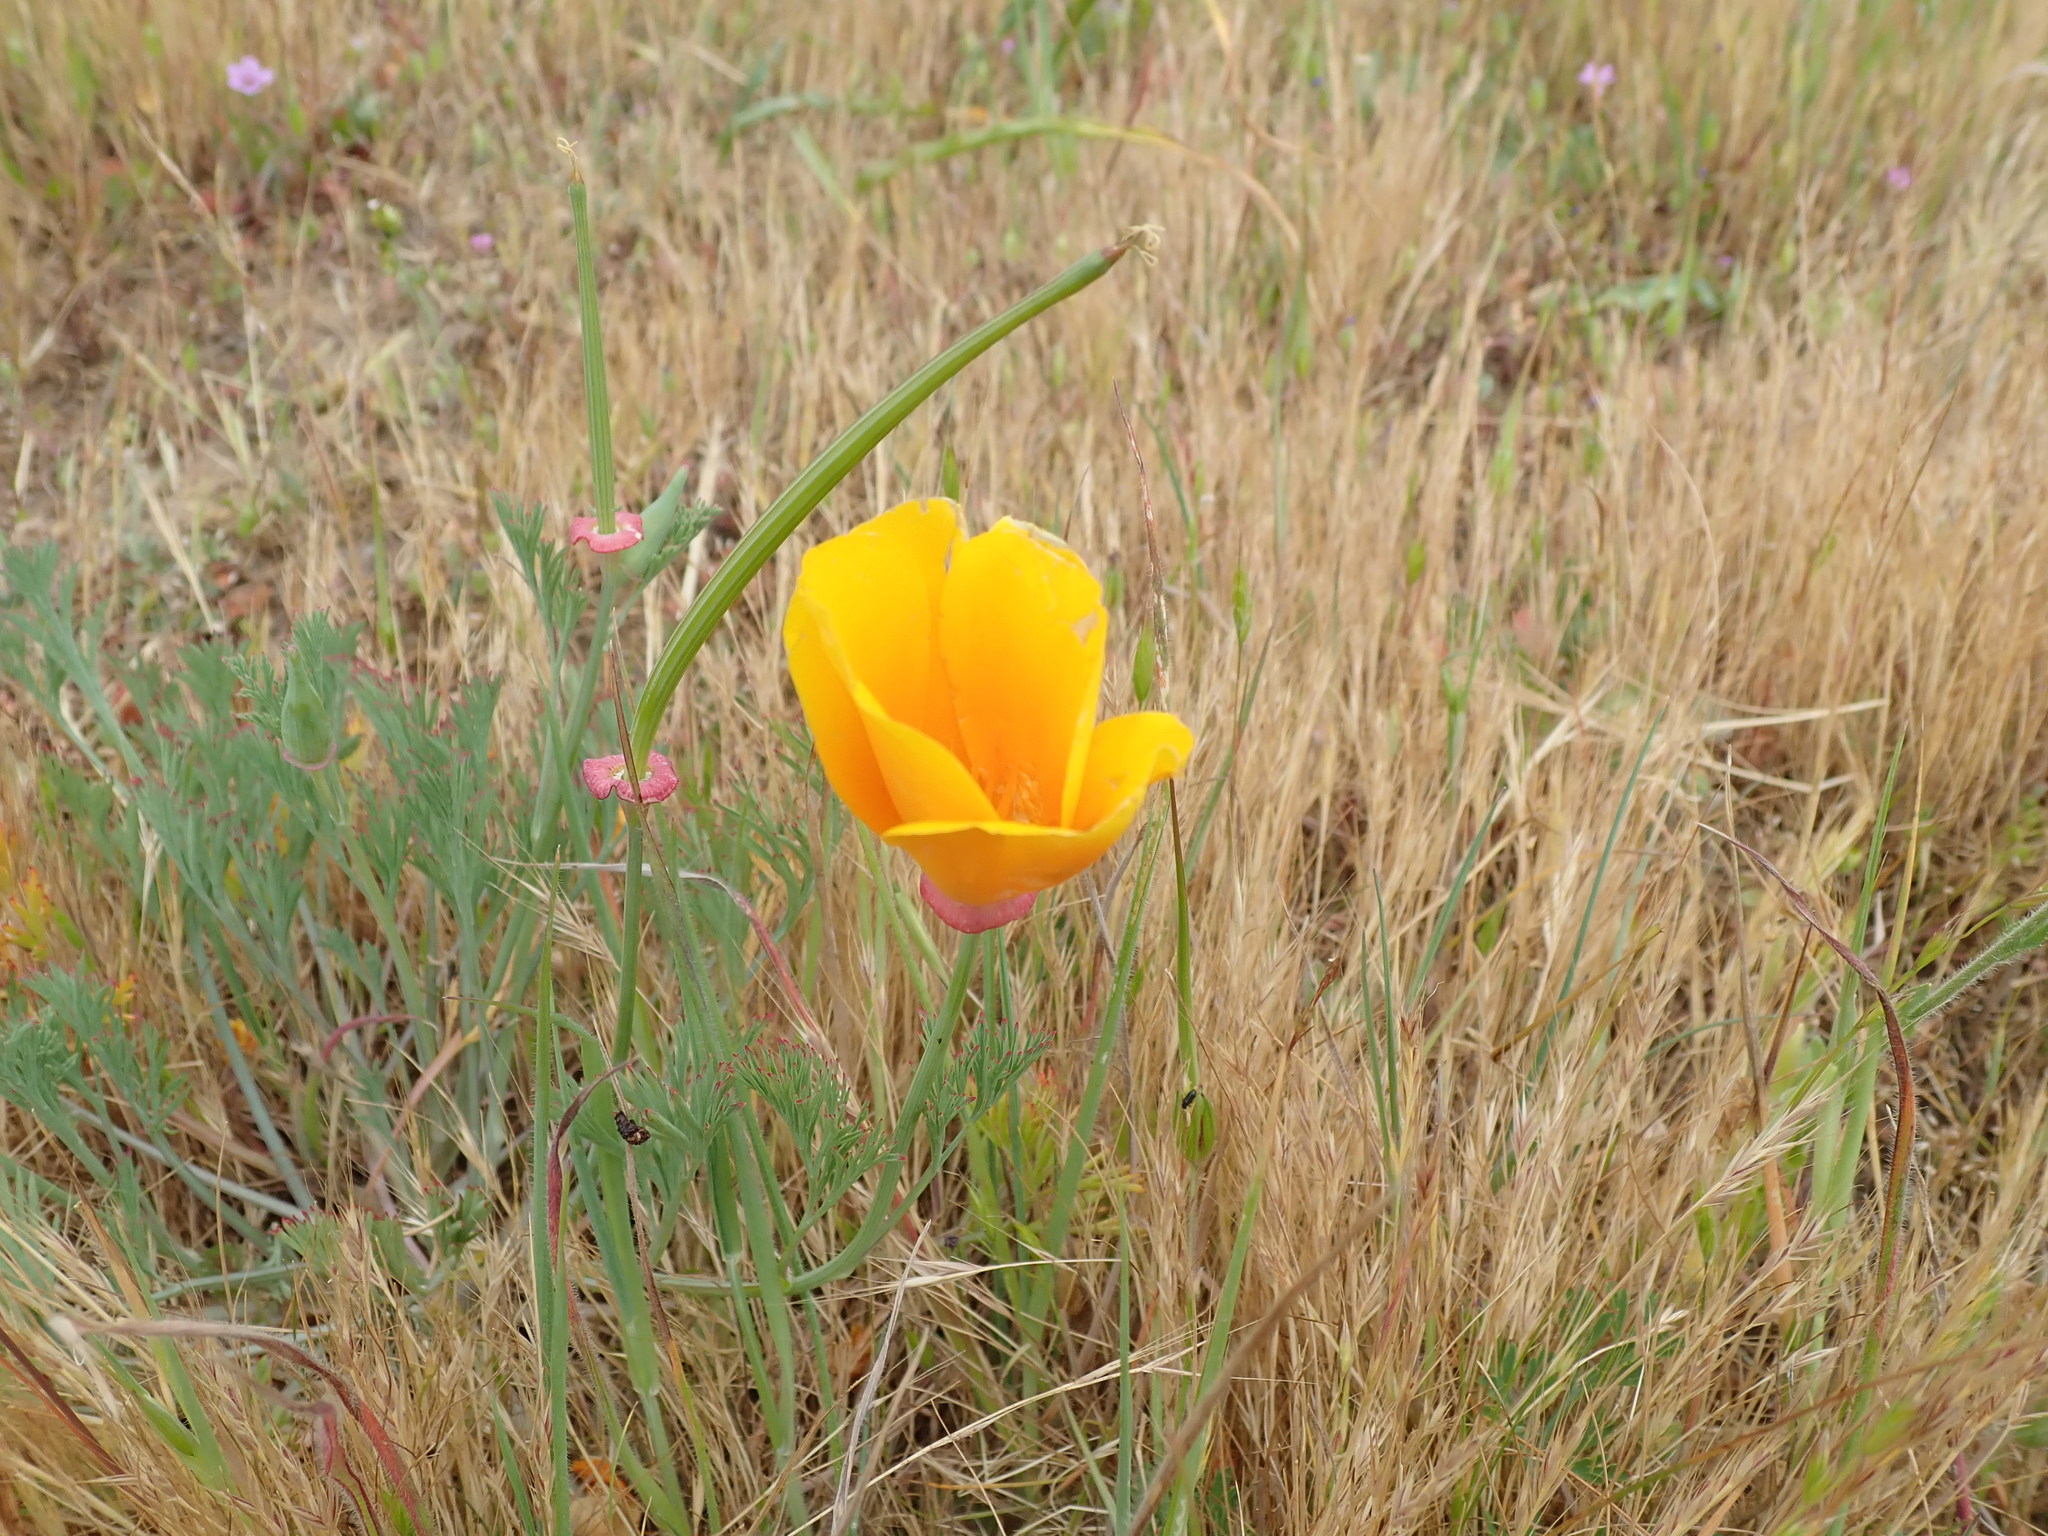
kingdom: Plantae
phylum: Tracheophyta
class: Magnoliopsida
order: Ranunculales
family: Papaveraceae
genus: Eschscholzia
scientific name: Eschscholzia californica
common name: California poppy
